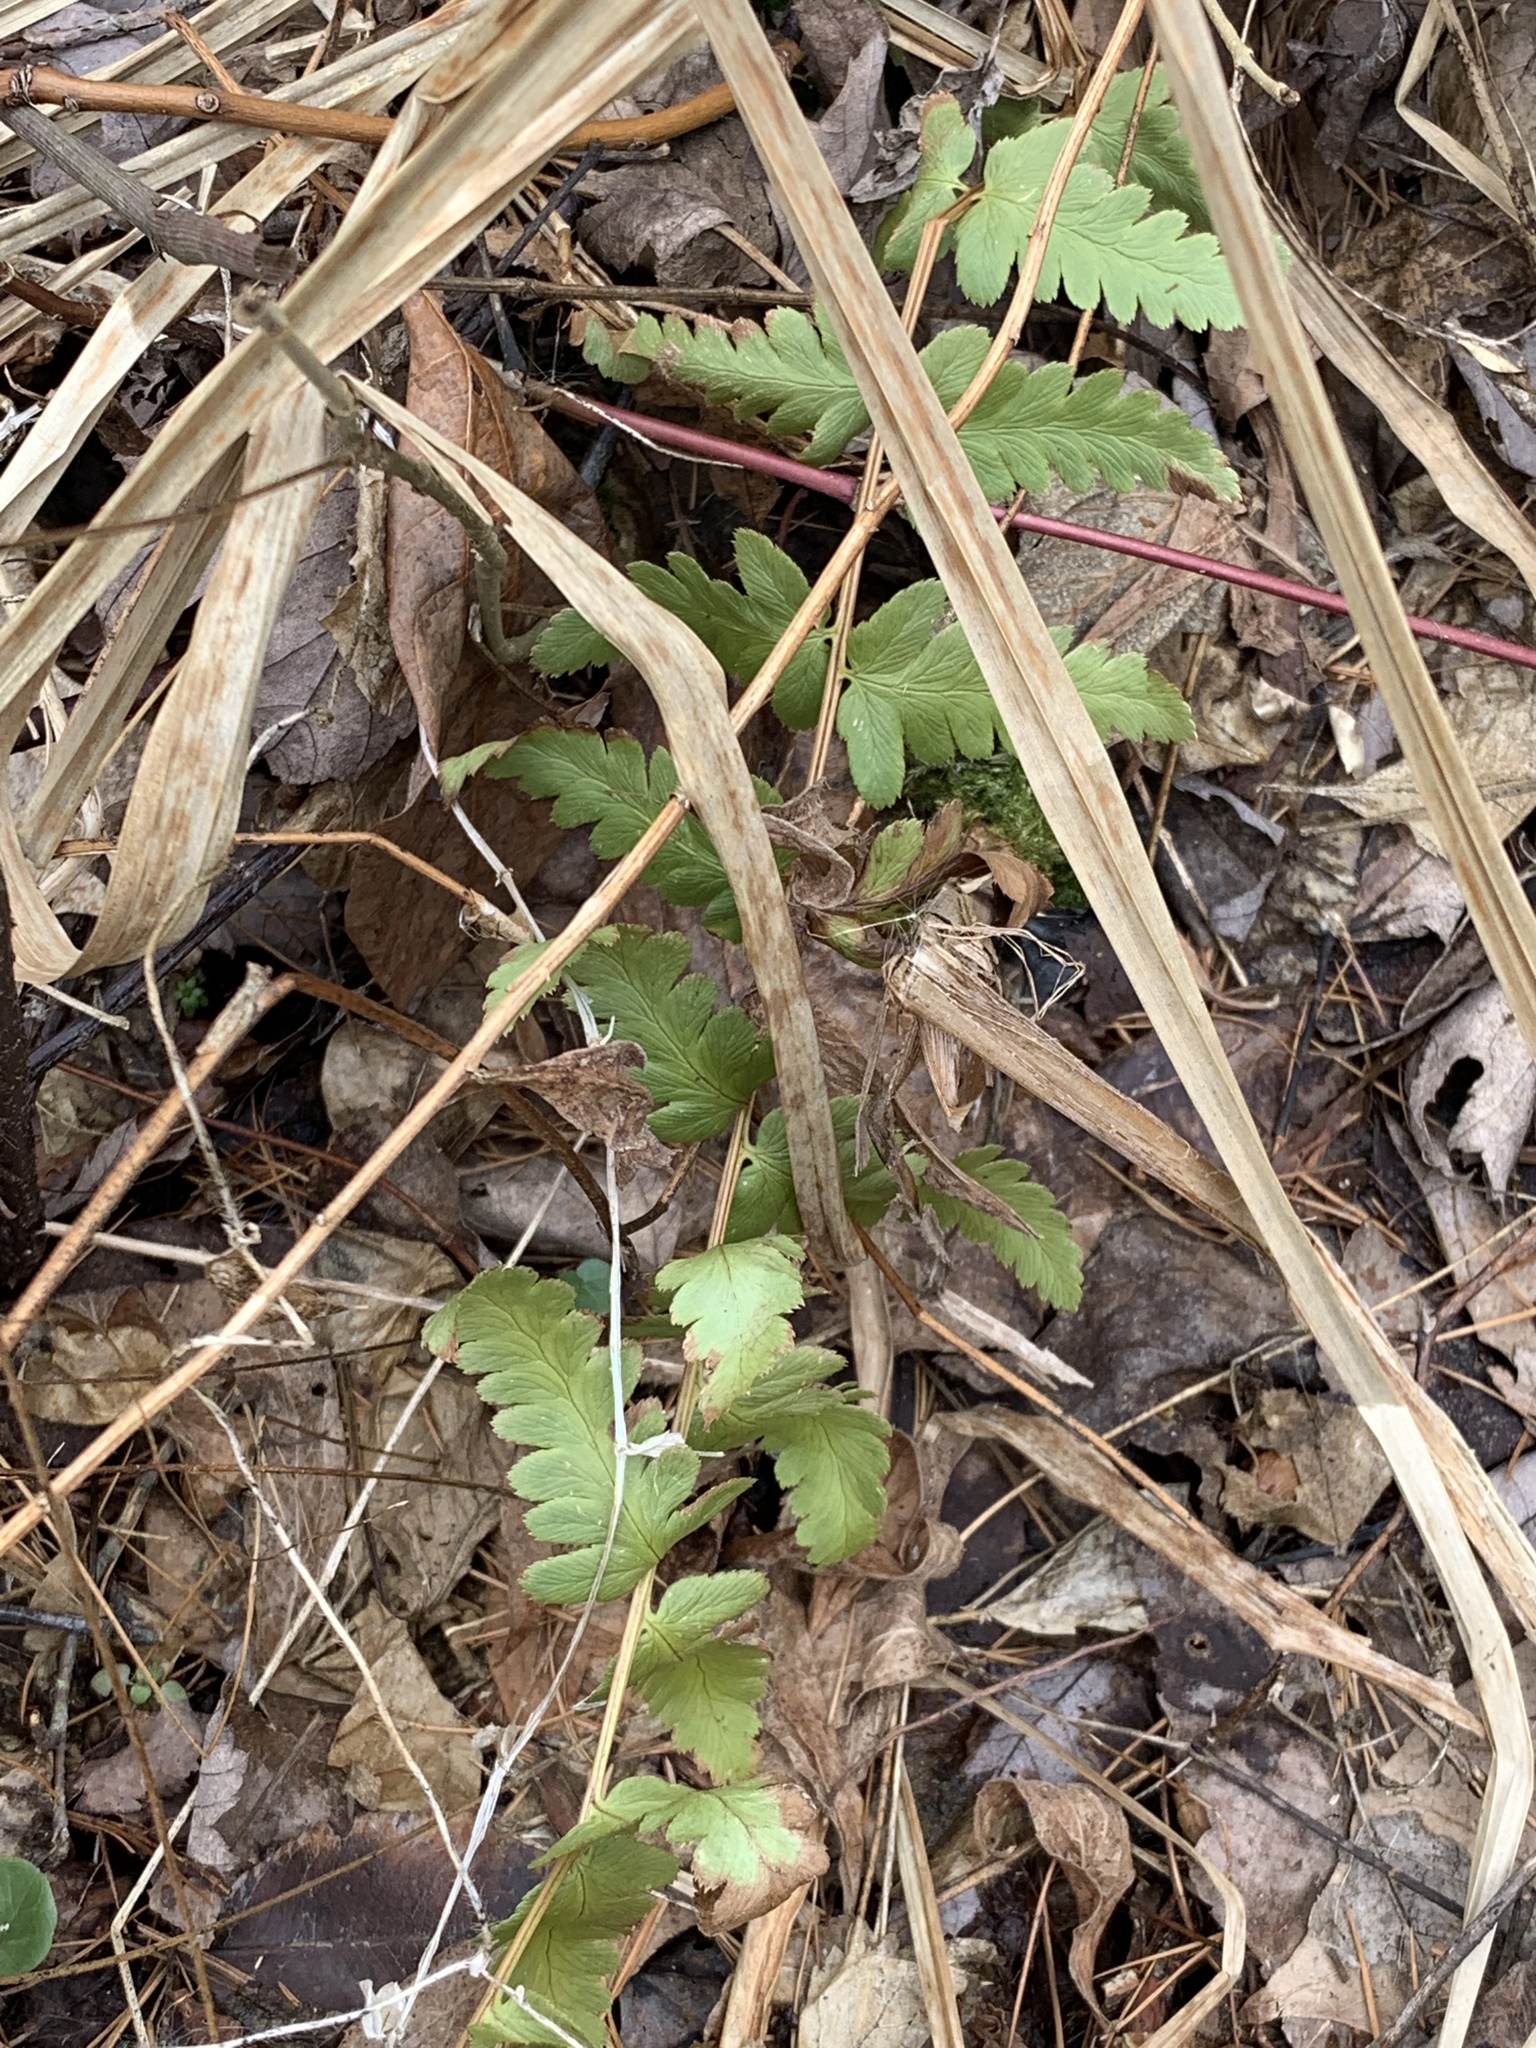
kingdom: Plantae
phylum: Tracheophyta
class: Polypodiopsida
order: Polypodiales
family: Dryopteridaceae
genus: Dryopteris
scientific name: Dryopteris cristata
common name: Crested wood fern
